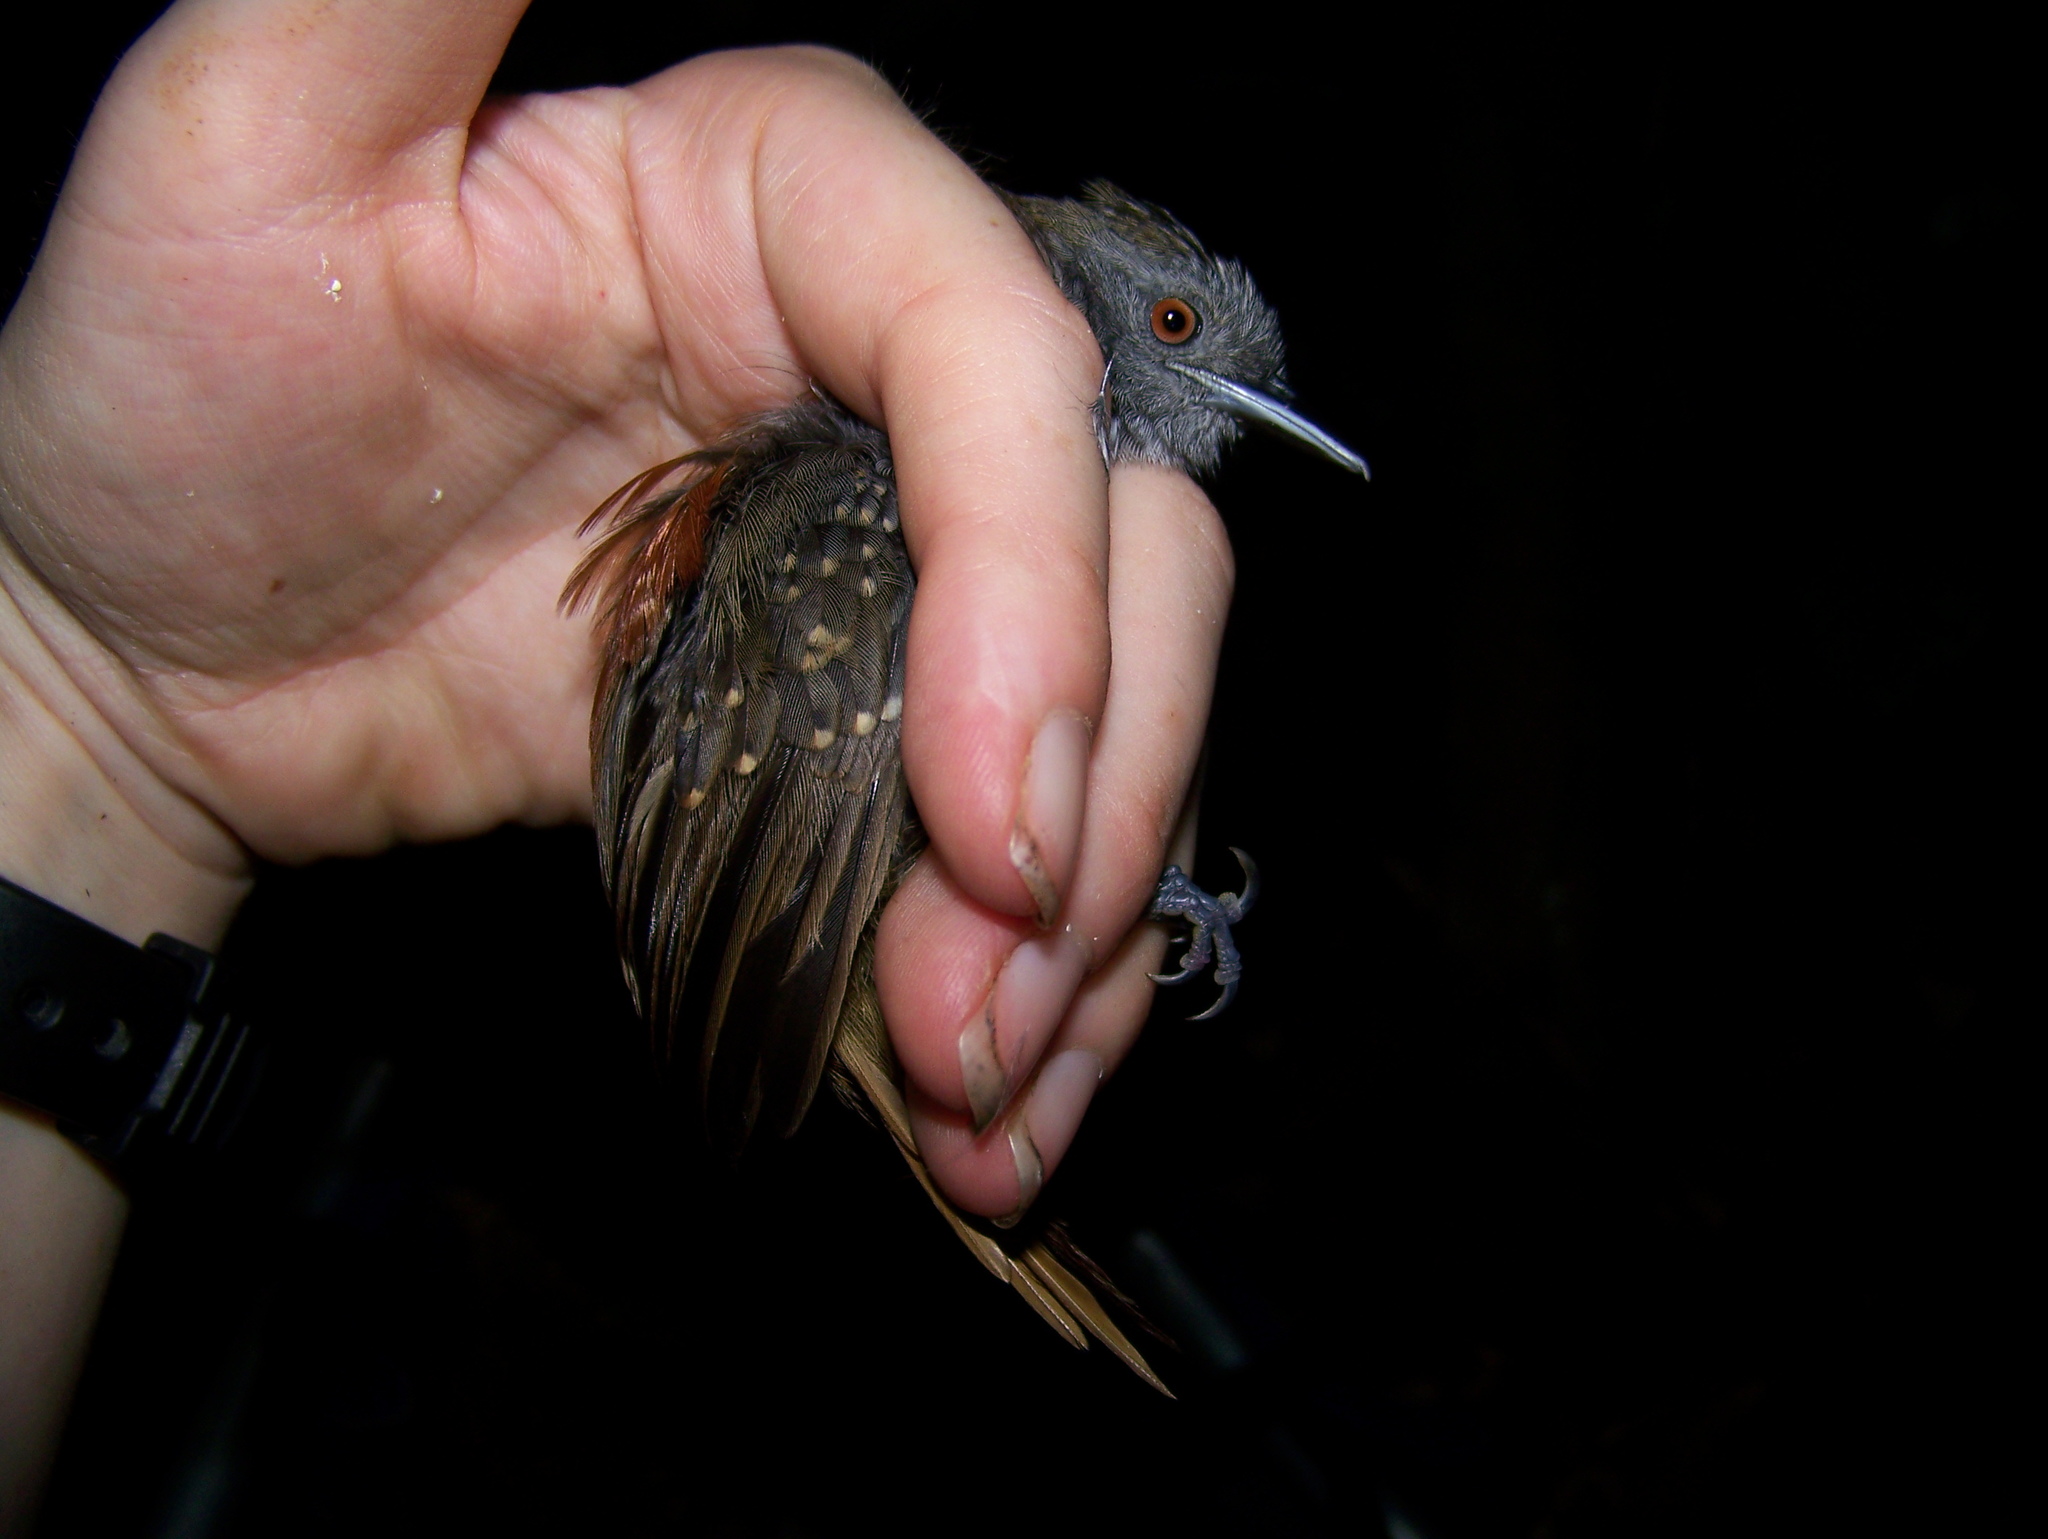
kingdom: Animalia
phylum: Chordata
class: Aves
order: Passeriformes
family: Thamnophilidae
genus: Epinecrophylla
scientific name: Epinecrophylla erythrura
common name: Rufous-tailed antwren
